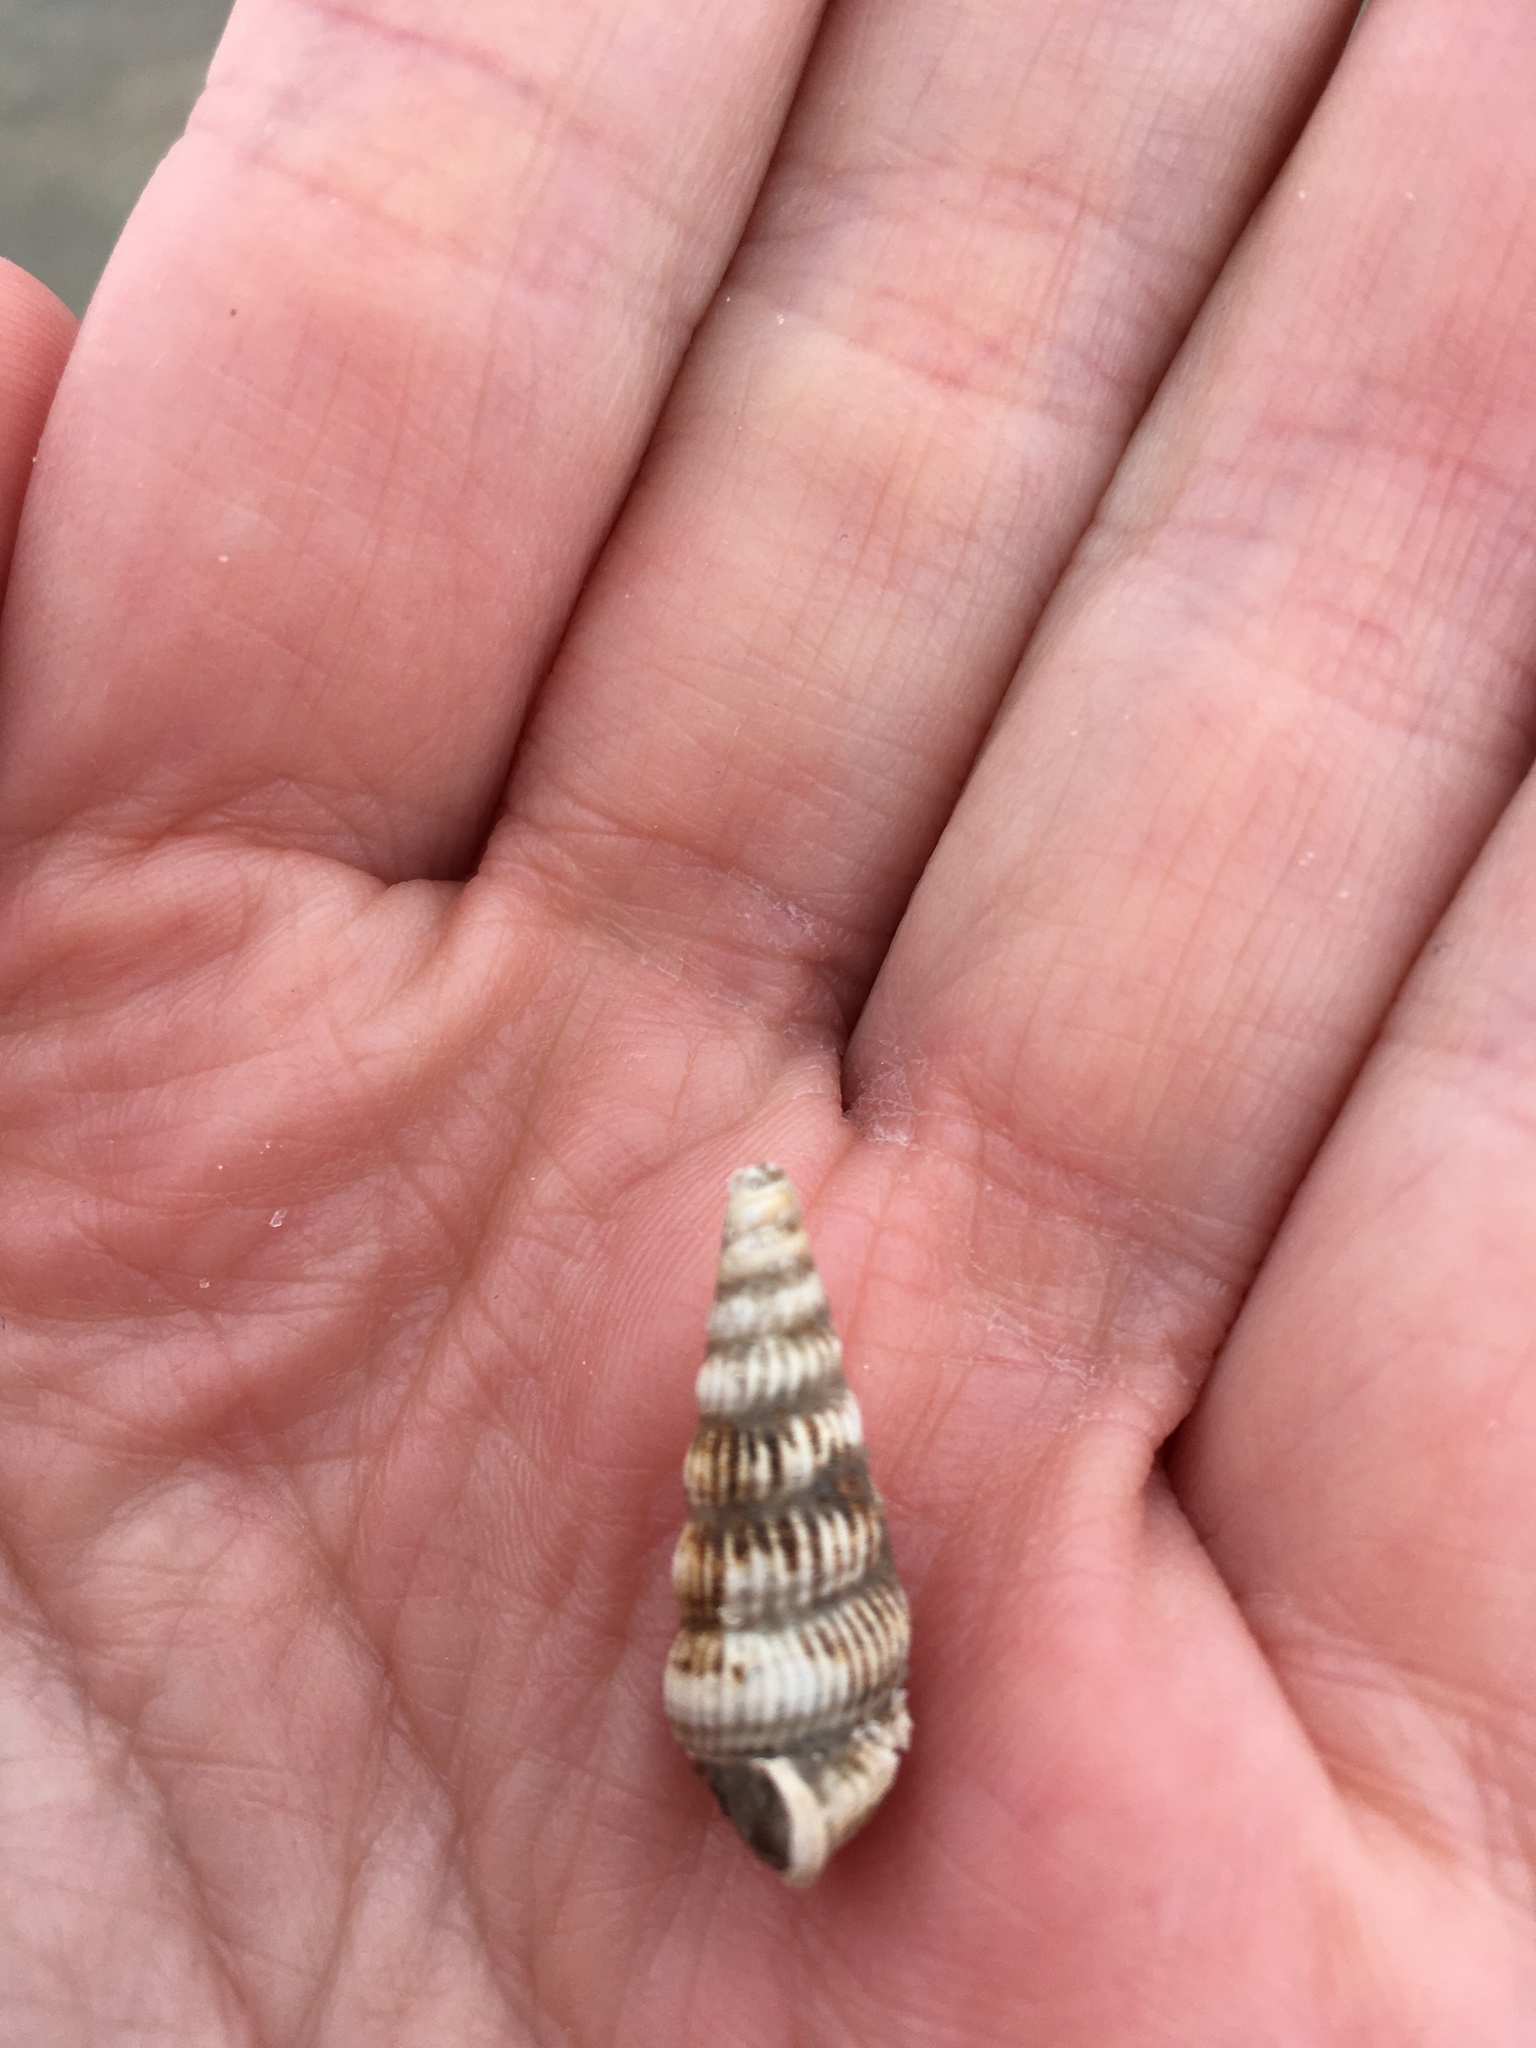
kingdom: Animalia
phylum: Mollusca
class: Gastropoda
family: Potamididae
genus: Cerithideopsis
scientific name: Cerithideopsis scalariformis
